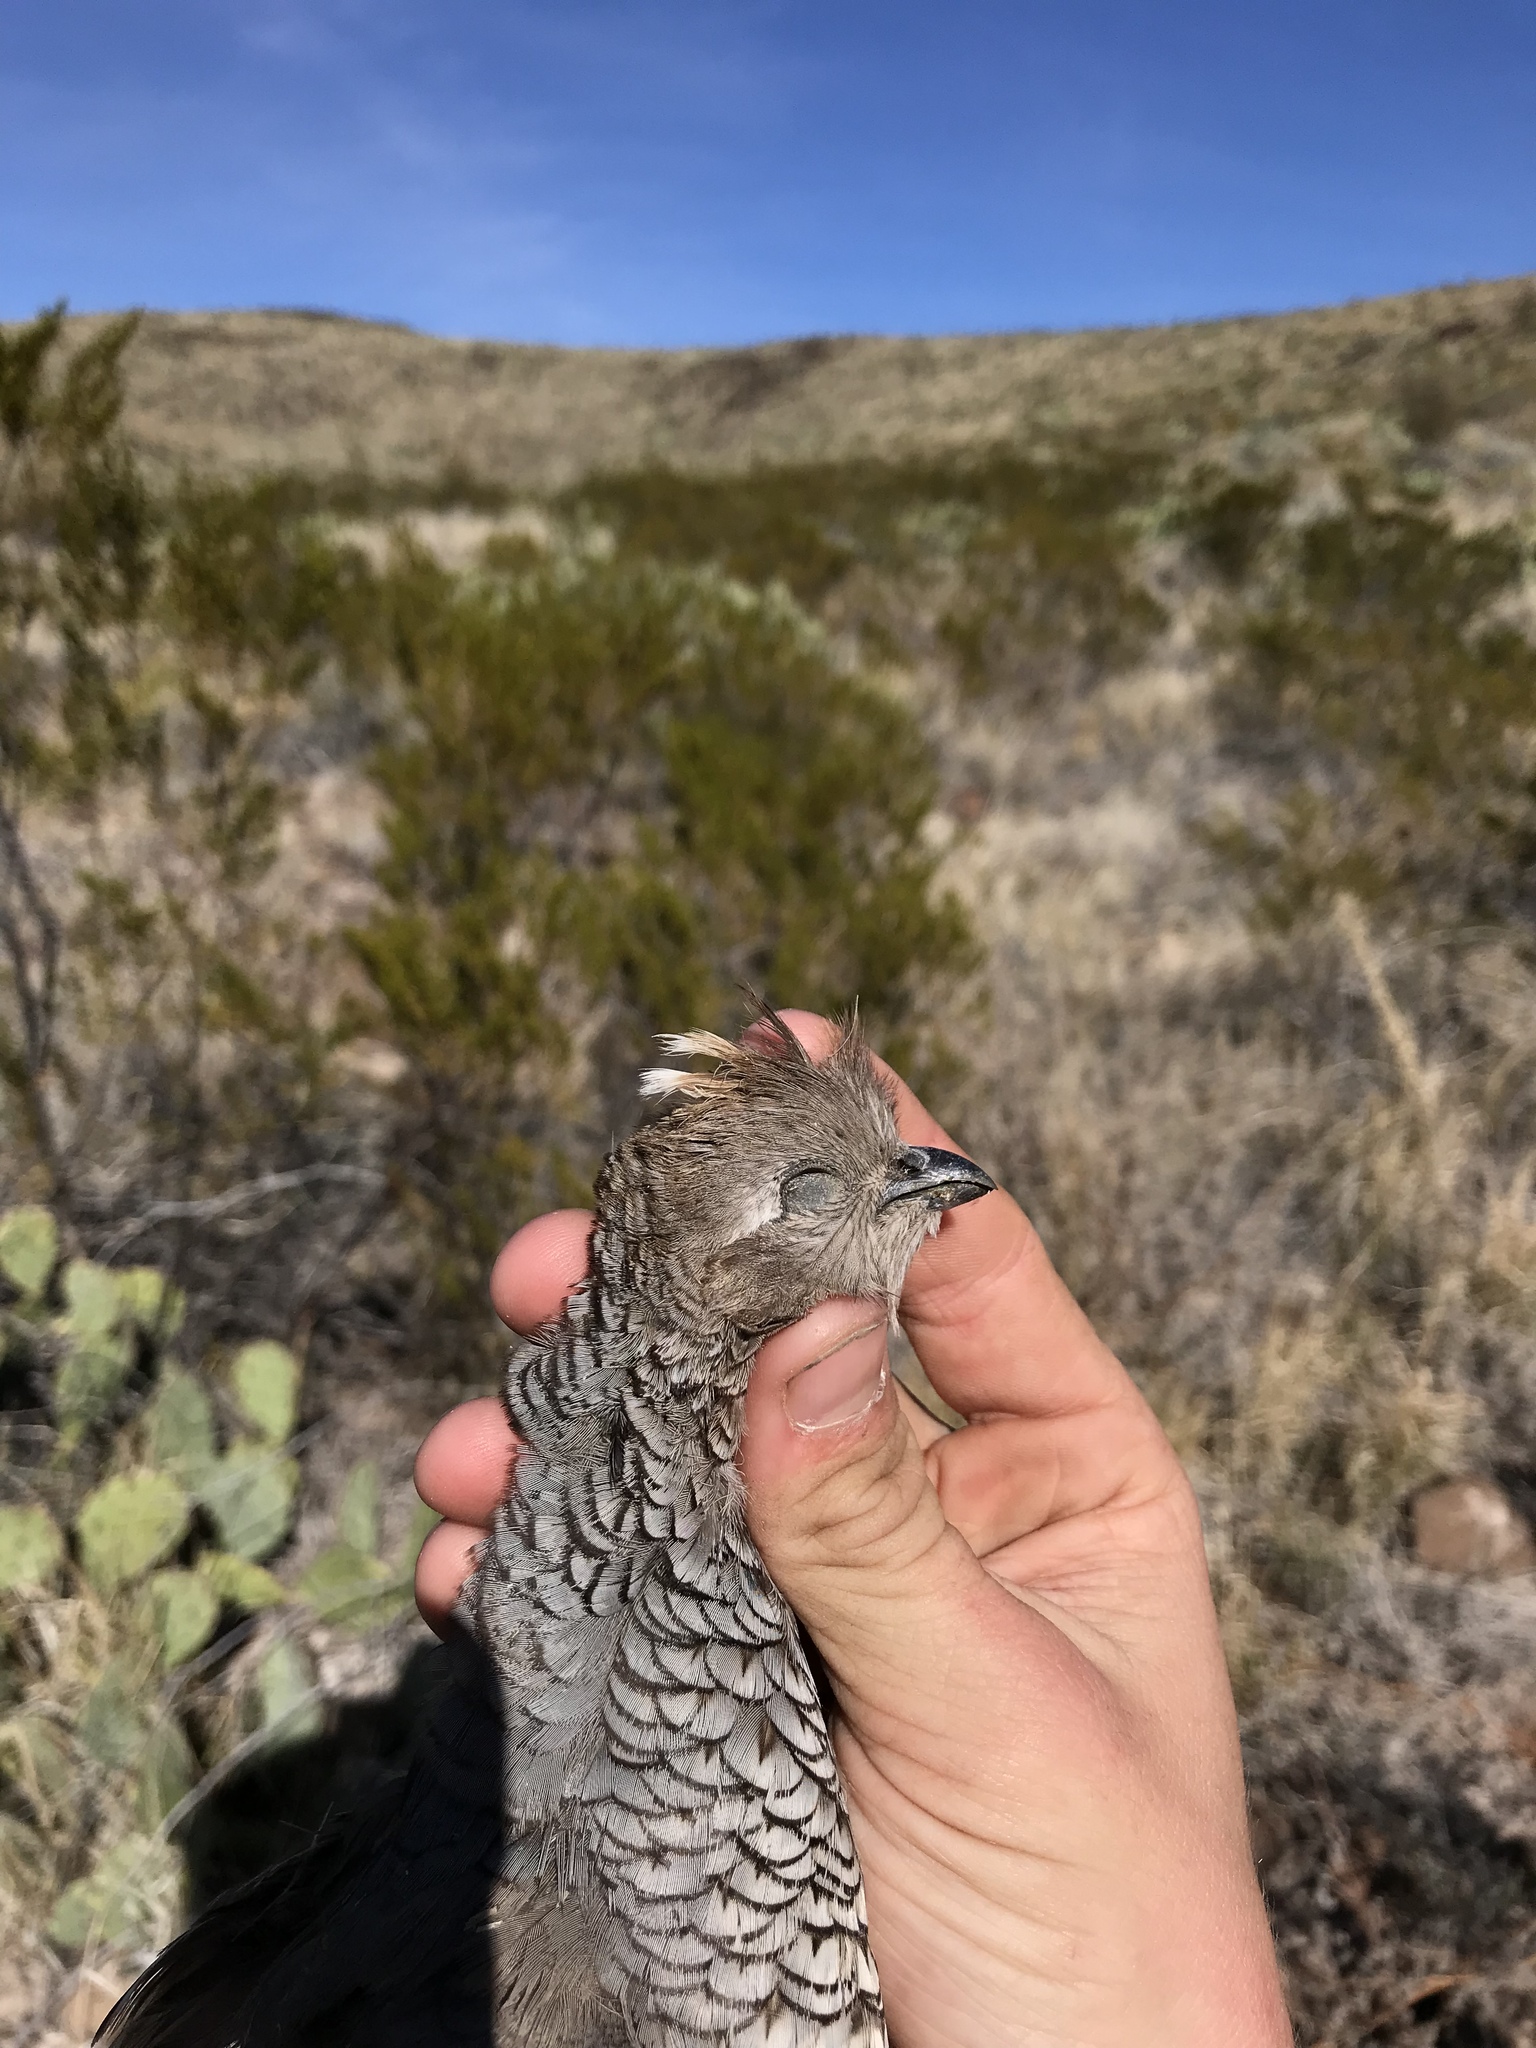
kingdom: Animalia
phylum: Chordata
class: Aves
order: Galliformes
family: Odontophoridae
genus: Callipepla
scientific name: Callipepla squamata
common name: Scaled quail
